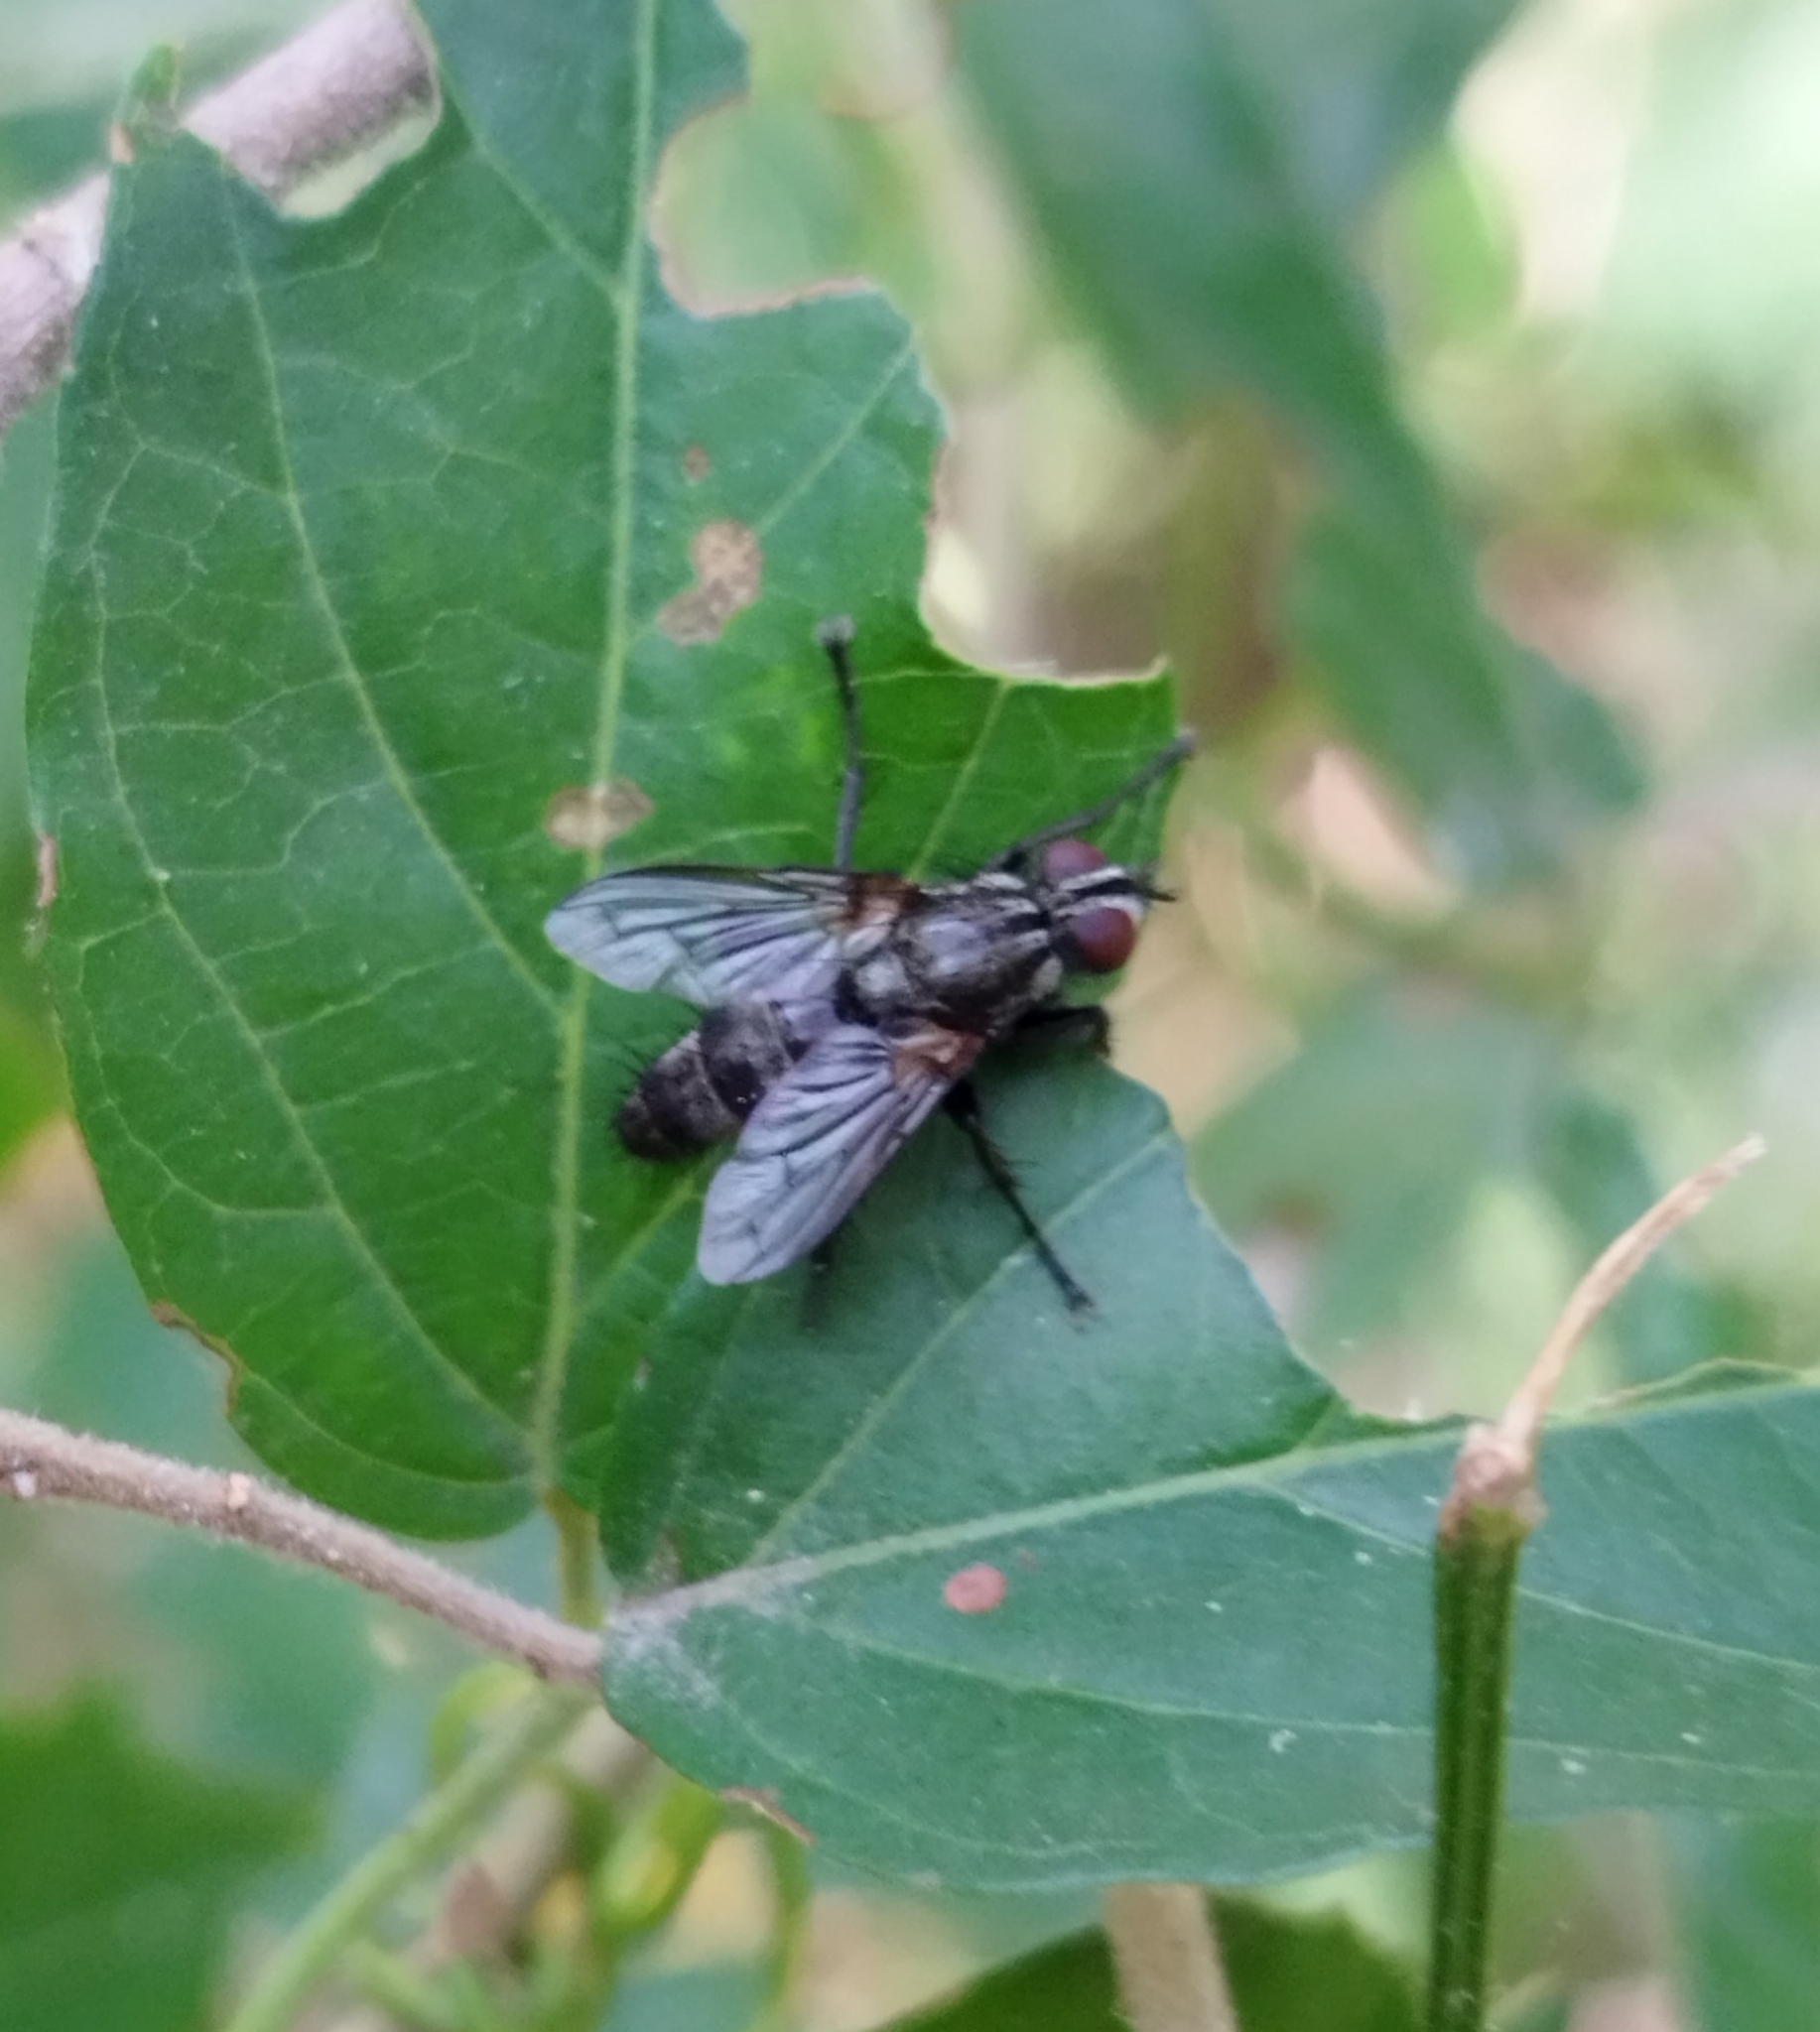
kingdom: Animalia
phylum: Arthropoda
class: Insecta
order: Diptera
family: Calliphoridae
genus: Stevenia
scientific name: Stevenia deceptoria
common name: Grizzled woodlouse-fly
